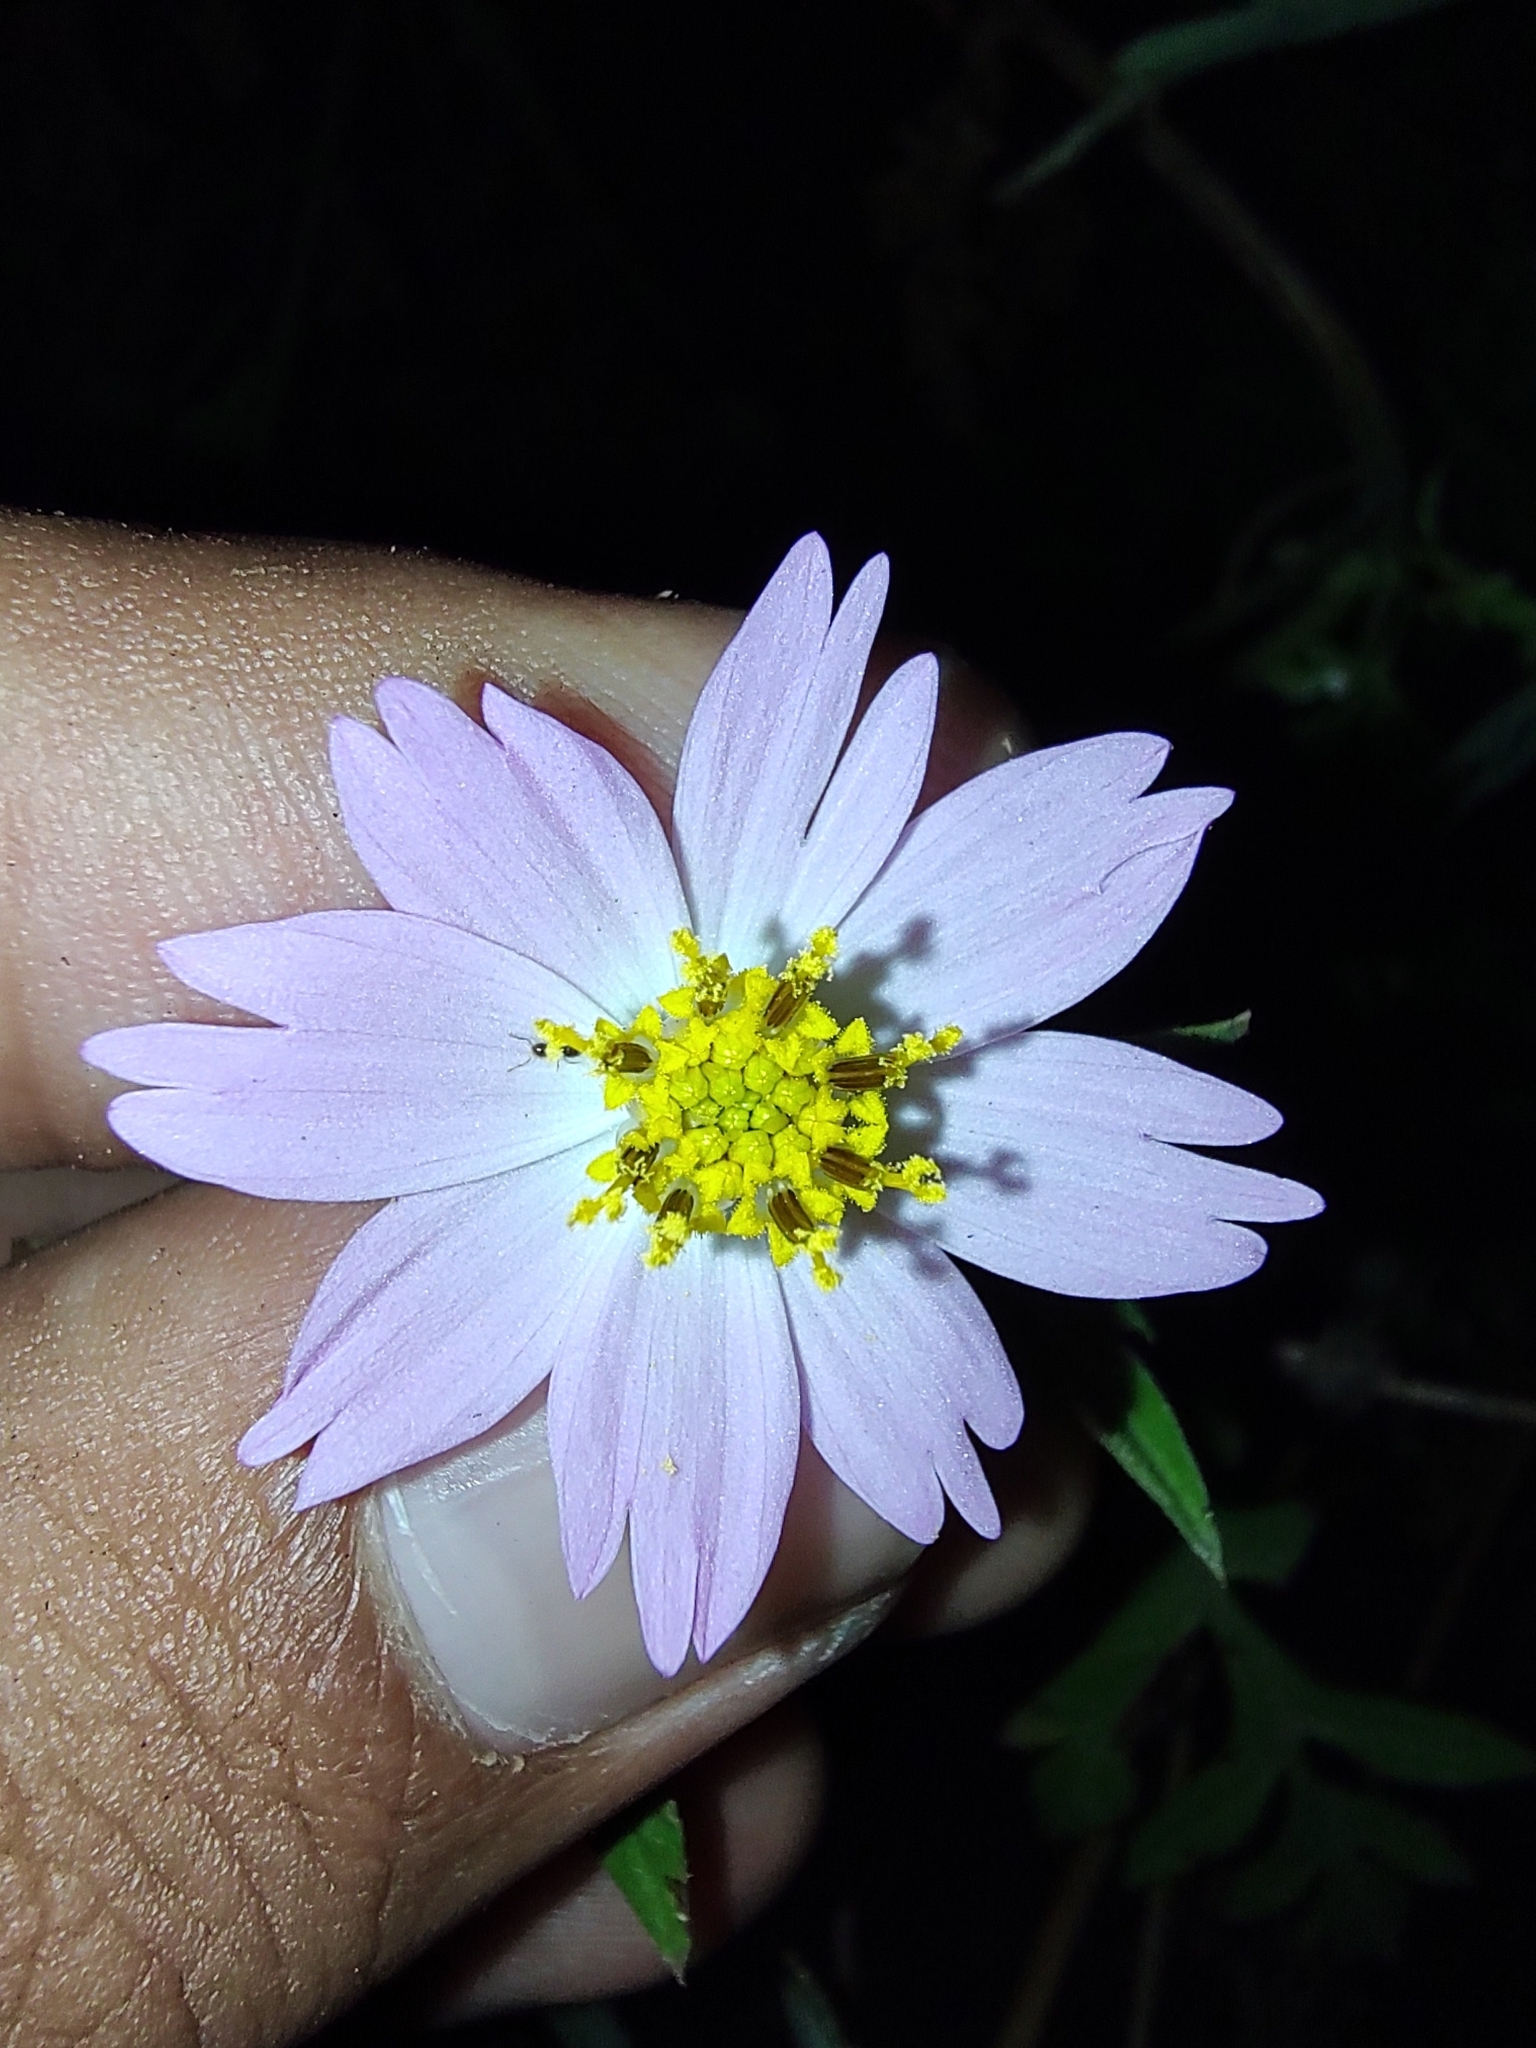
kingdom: Plantae
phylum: Tracheophyta
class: Magnoliopsida
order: Asterales
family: Asteraceae
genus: Cosmos
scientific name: Cosmos parviflorus
